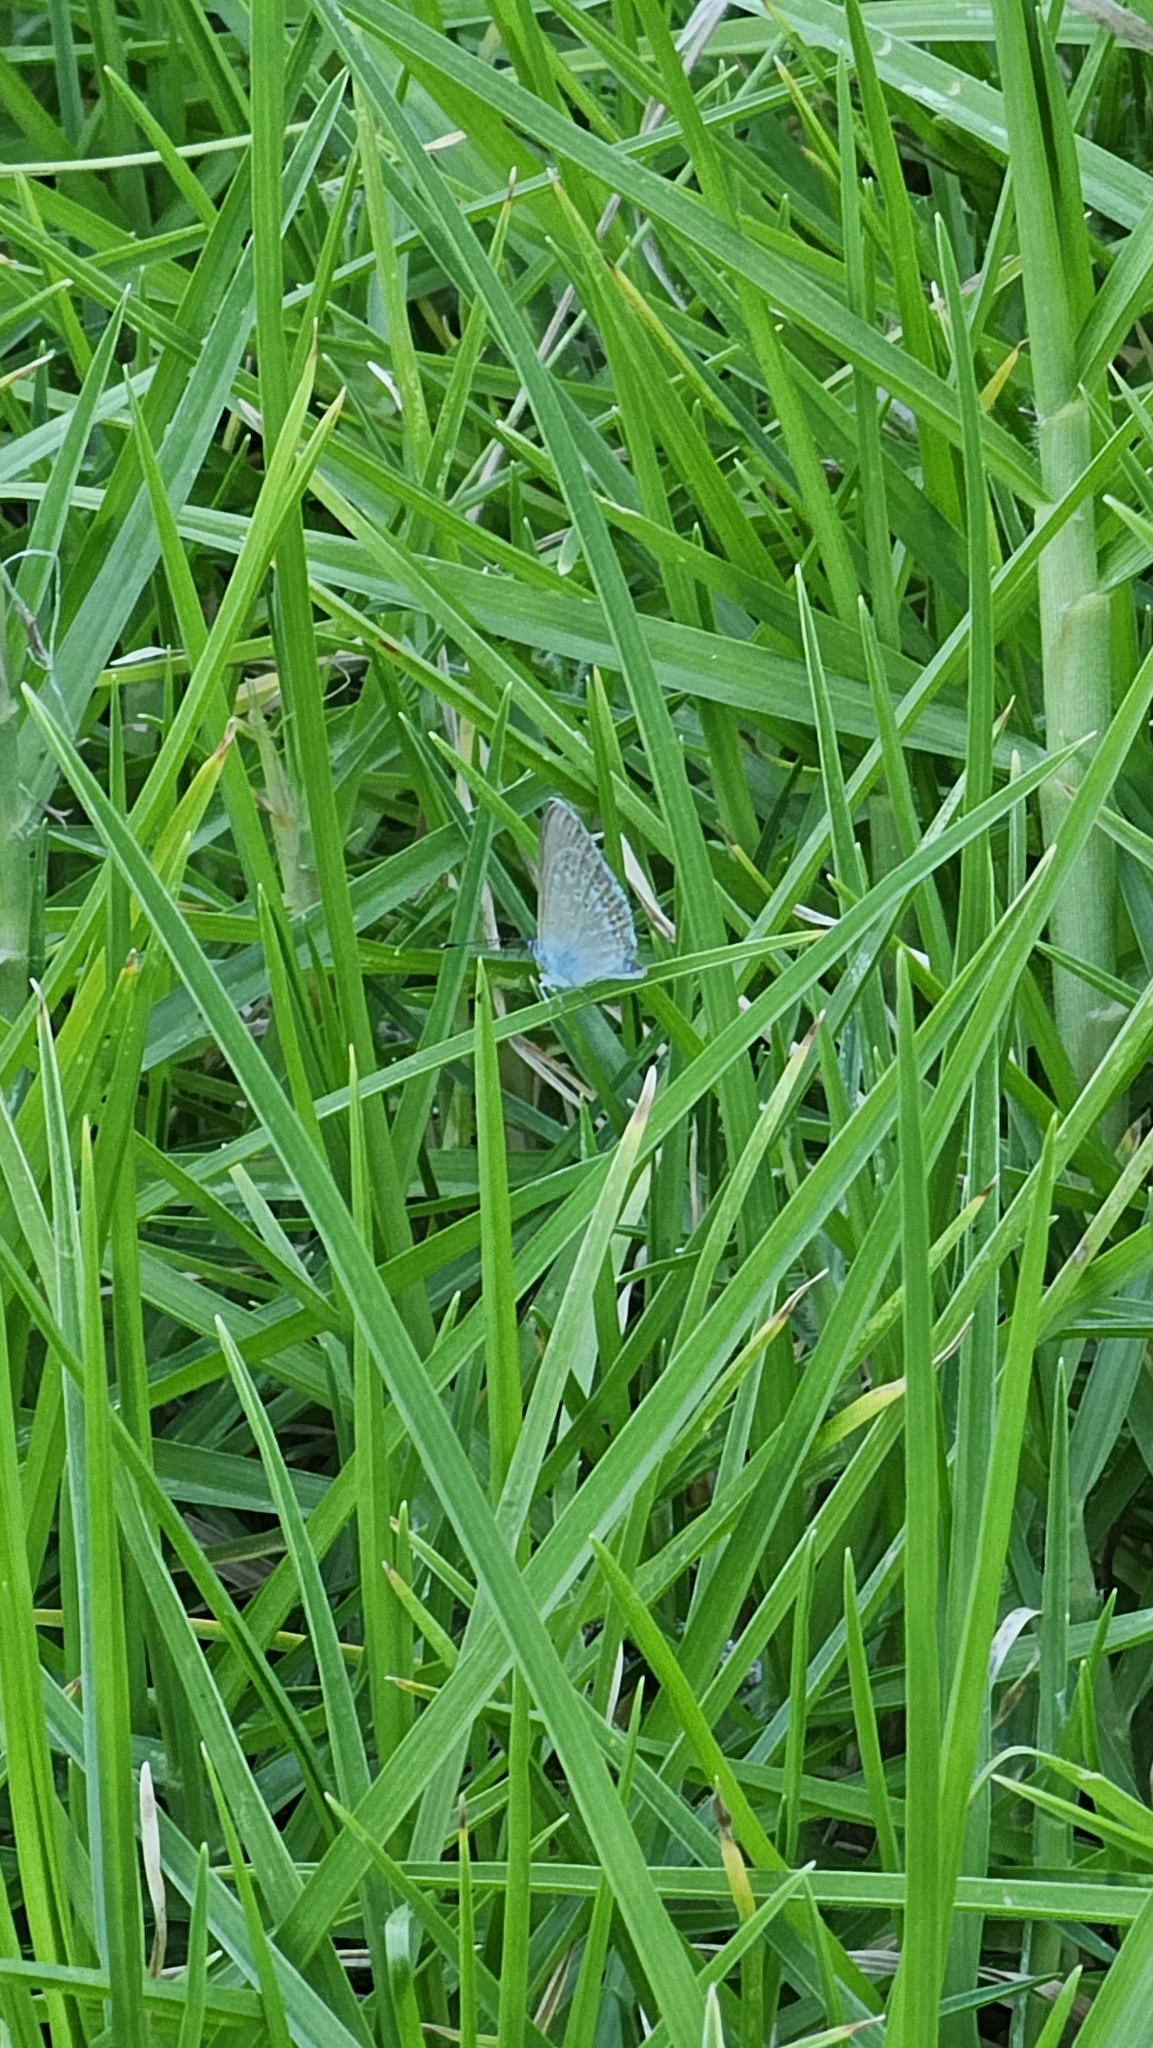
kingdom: Animalia
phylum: Arthropoda
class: Insecta
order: Lepidoptera
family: Lycaenidae
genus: Zizina
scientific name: Zizina otis
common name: Lesser grass blue
